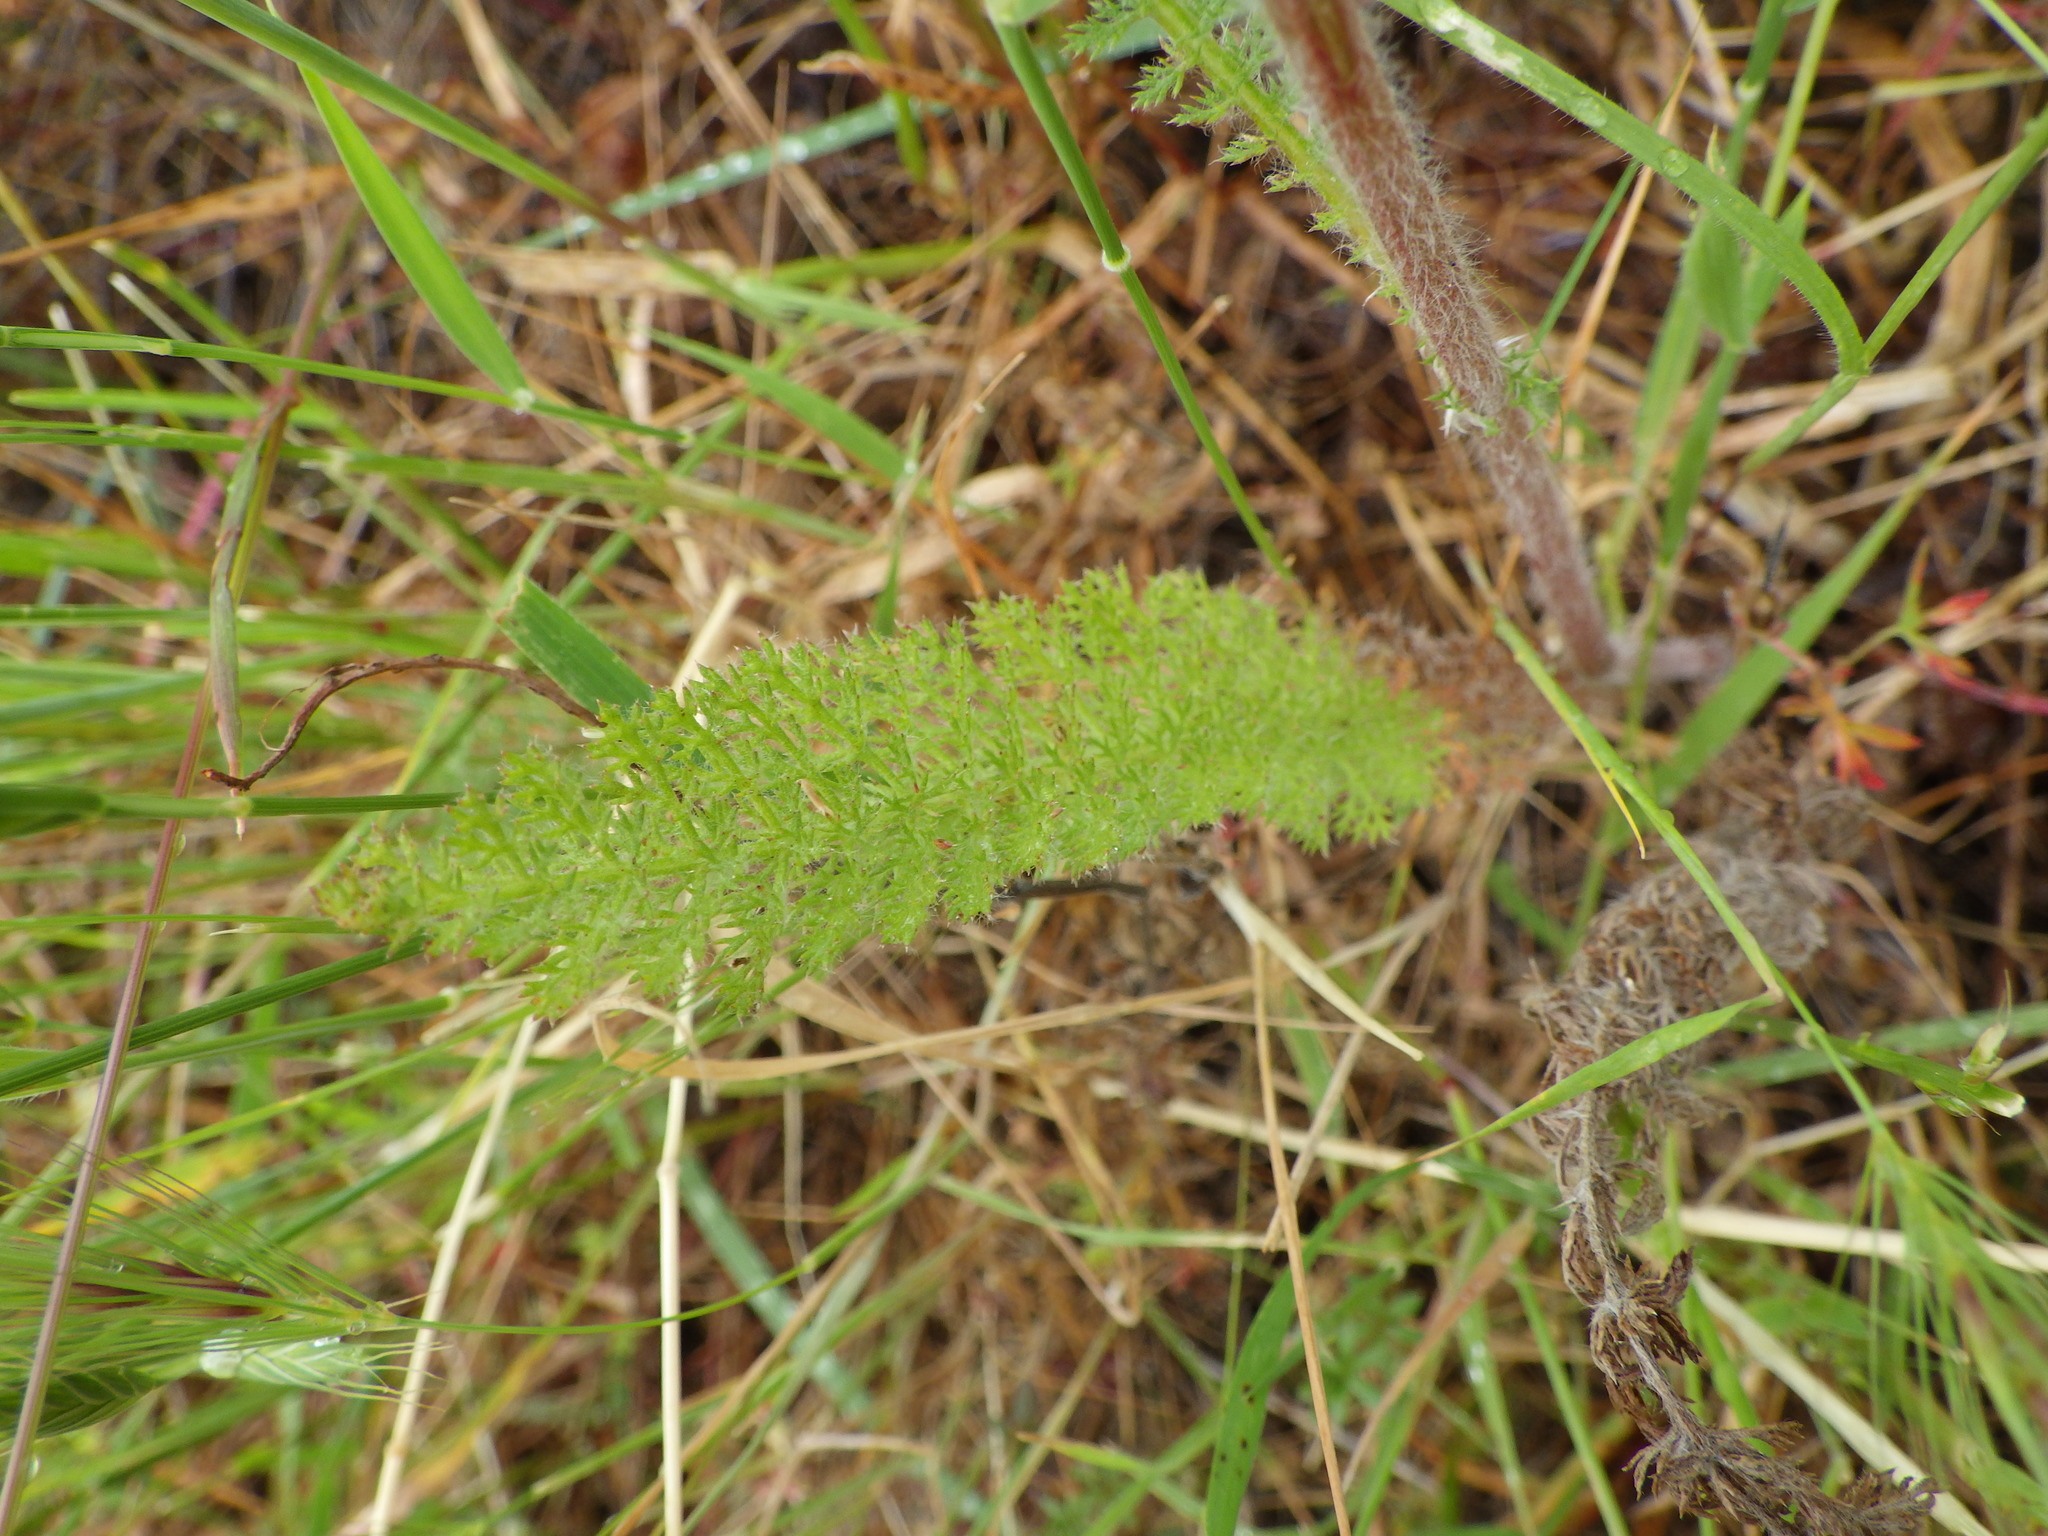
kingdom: Plantae
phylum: Tracheophyta
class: Magnoliopsida
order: Asterales
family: Asteraceae
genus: Achillea
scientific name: Achillea millefolium
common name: Yarrow
